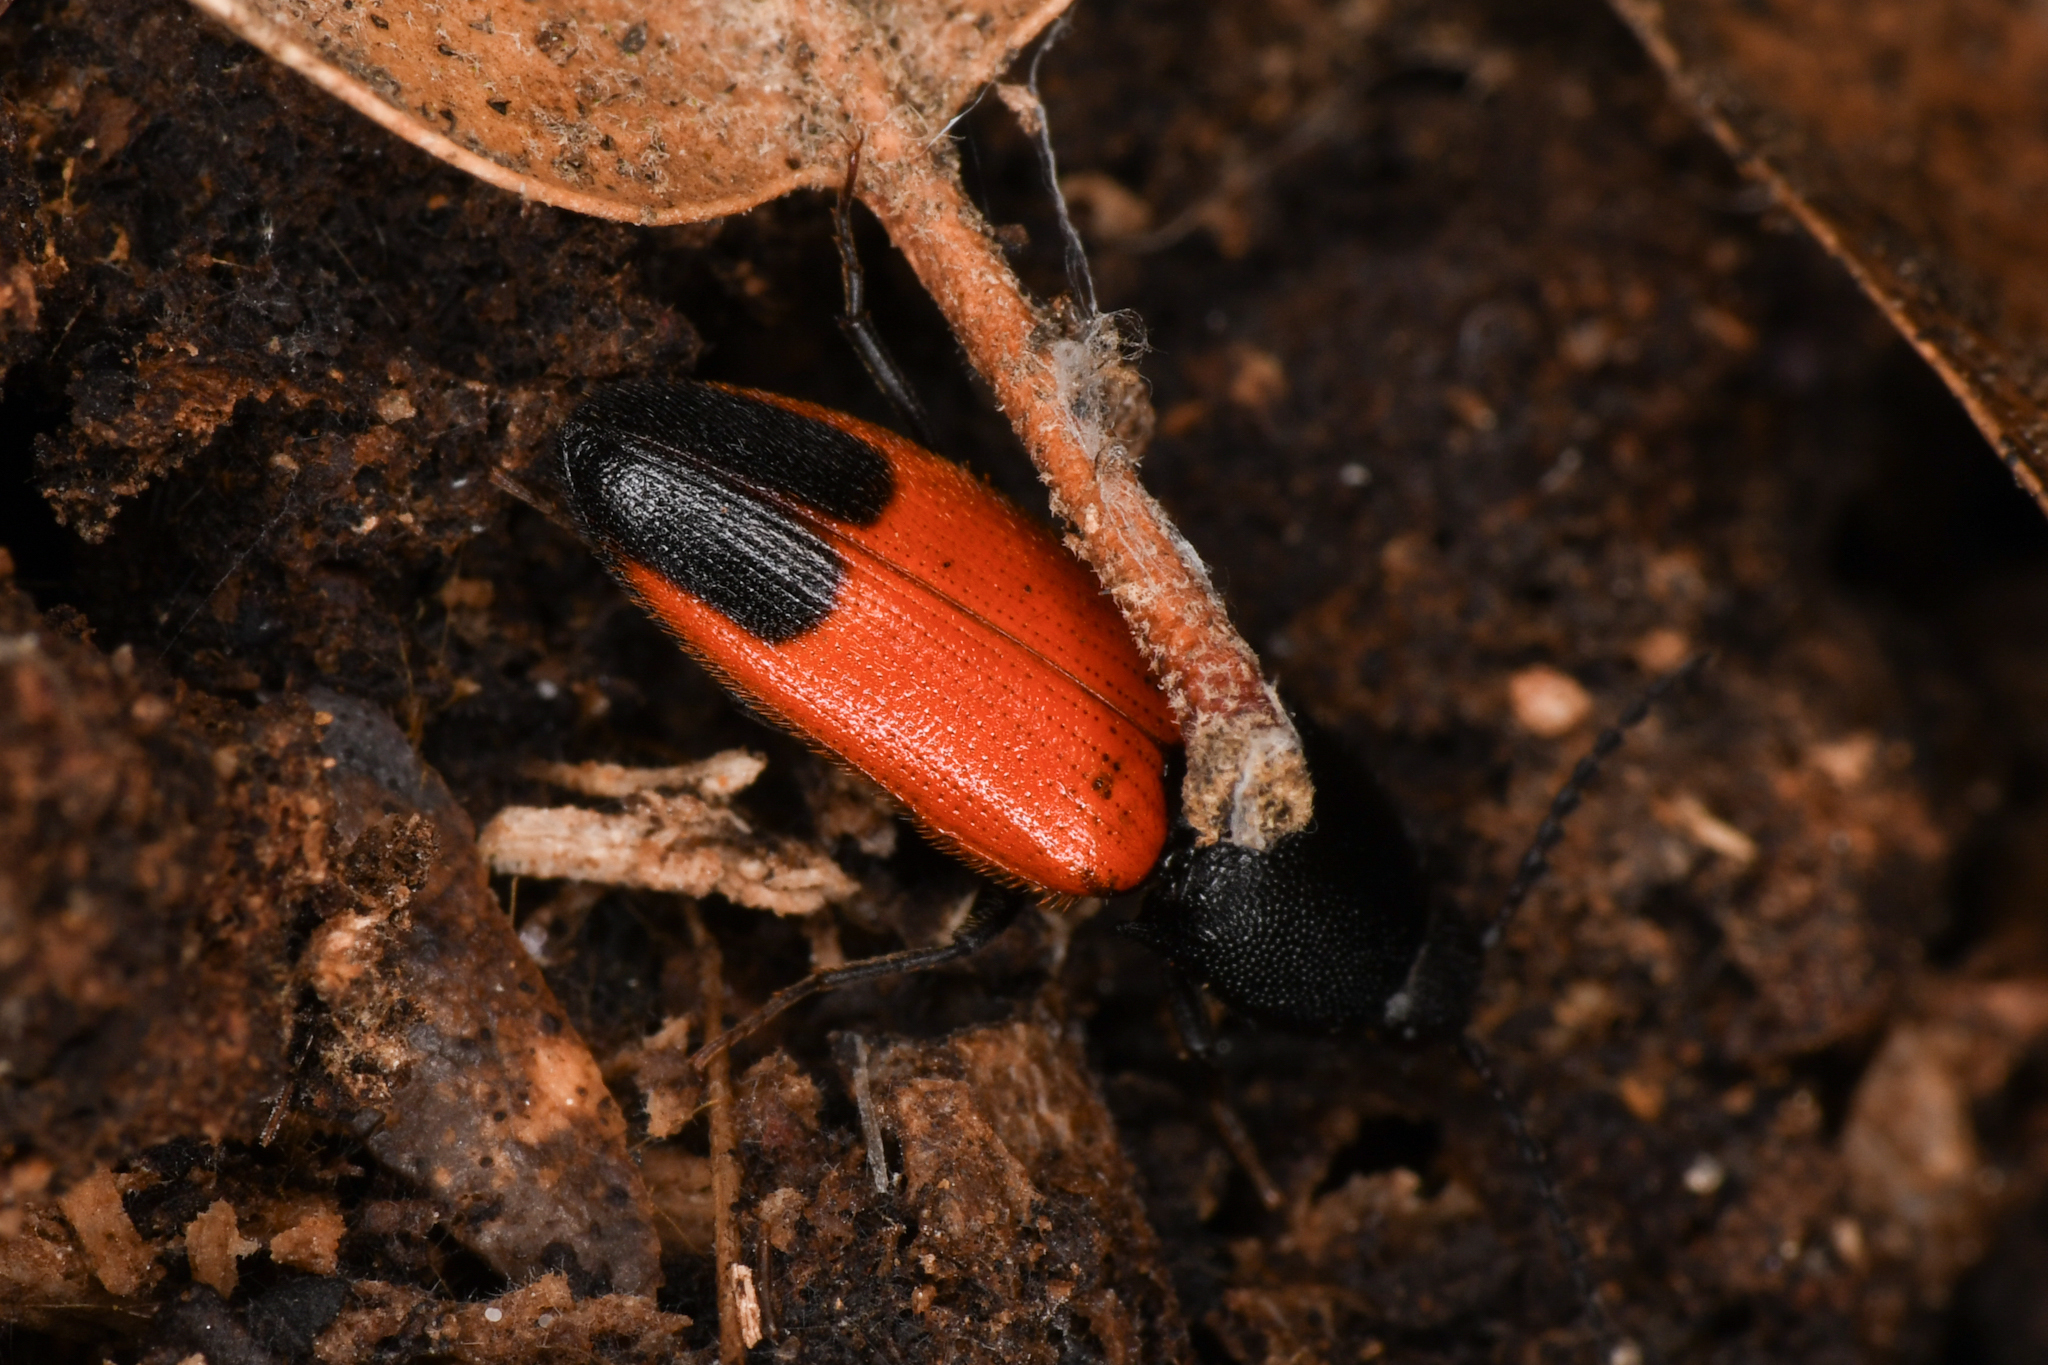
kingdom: Animalia
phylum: Arthropoda
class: Insecta
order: Coleoptera
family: Elateridae
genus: Ampedus
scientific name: Ampedus
